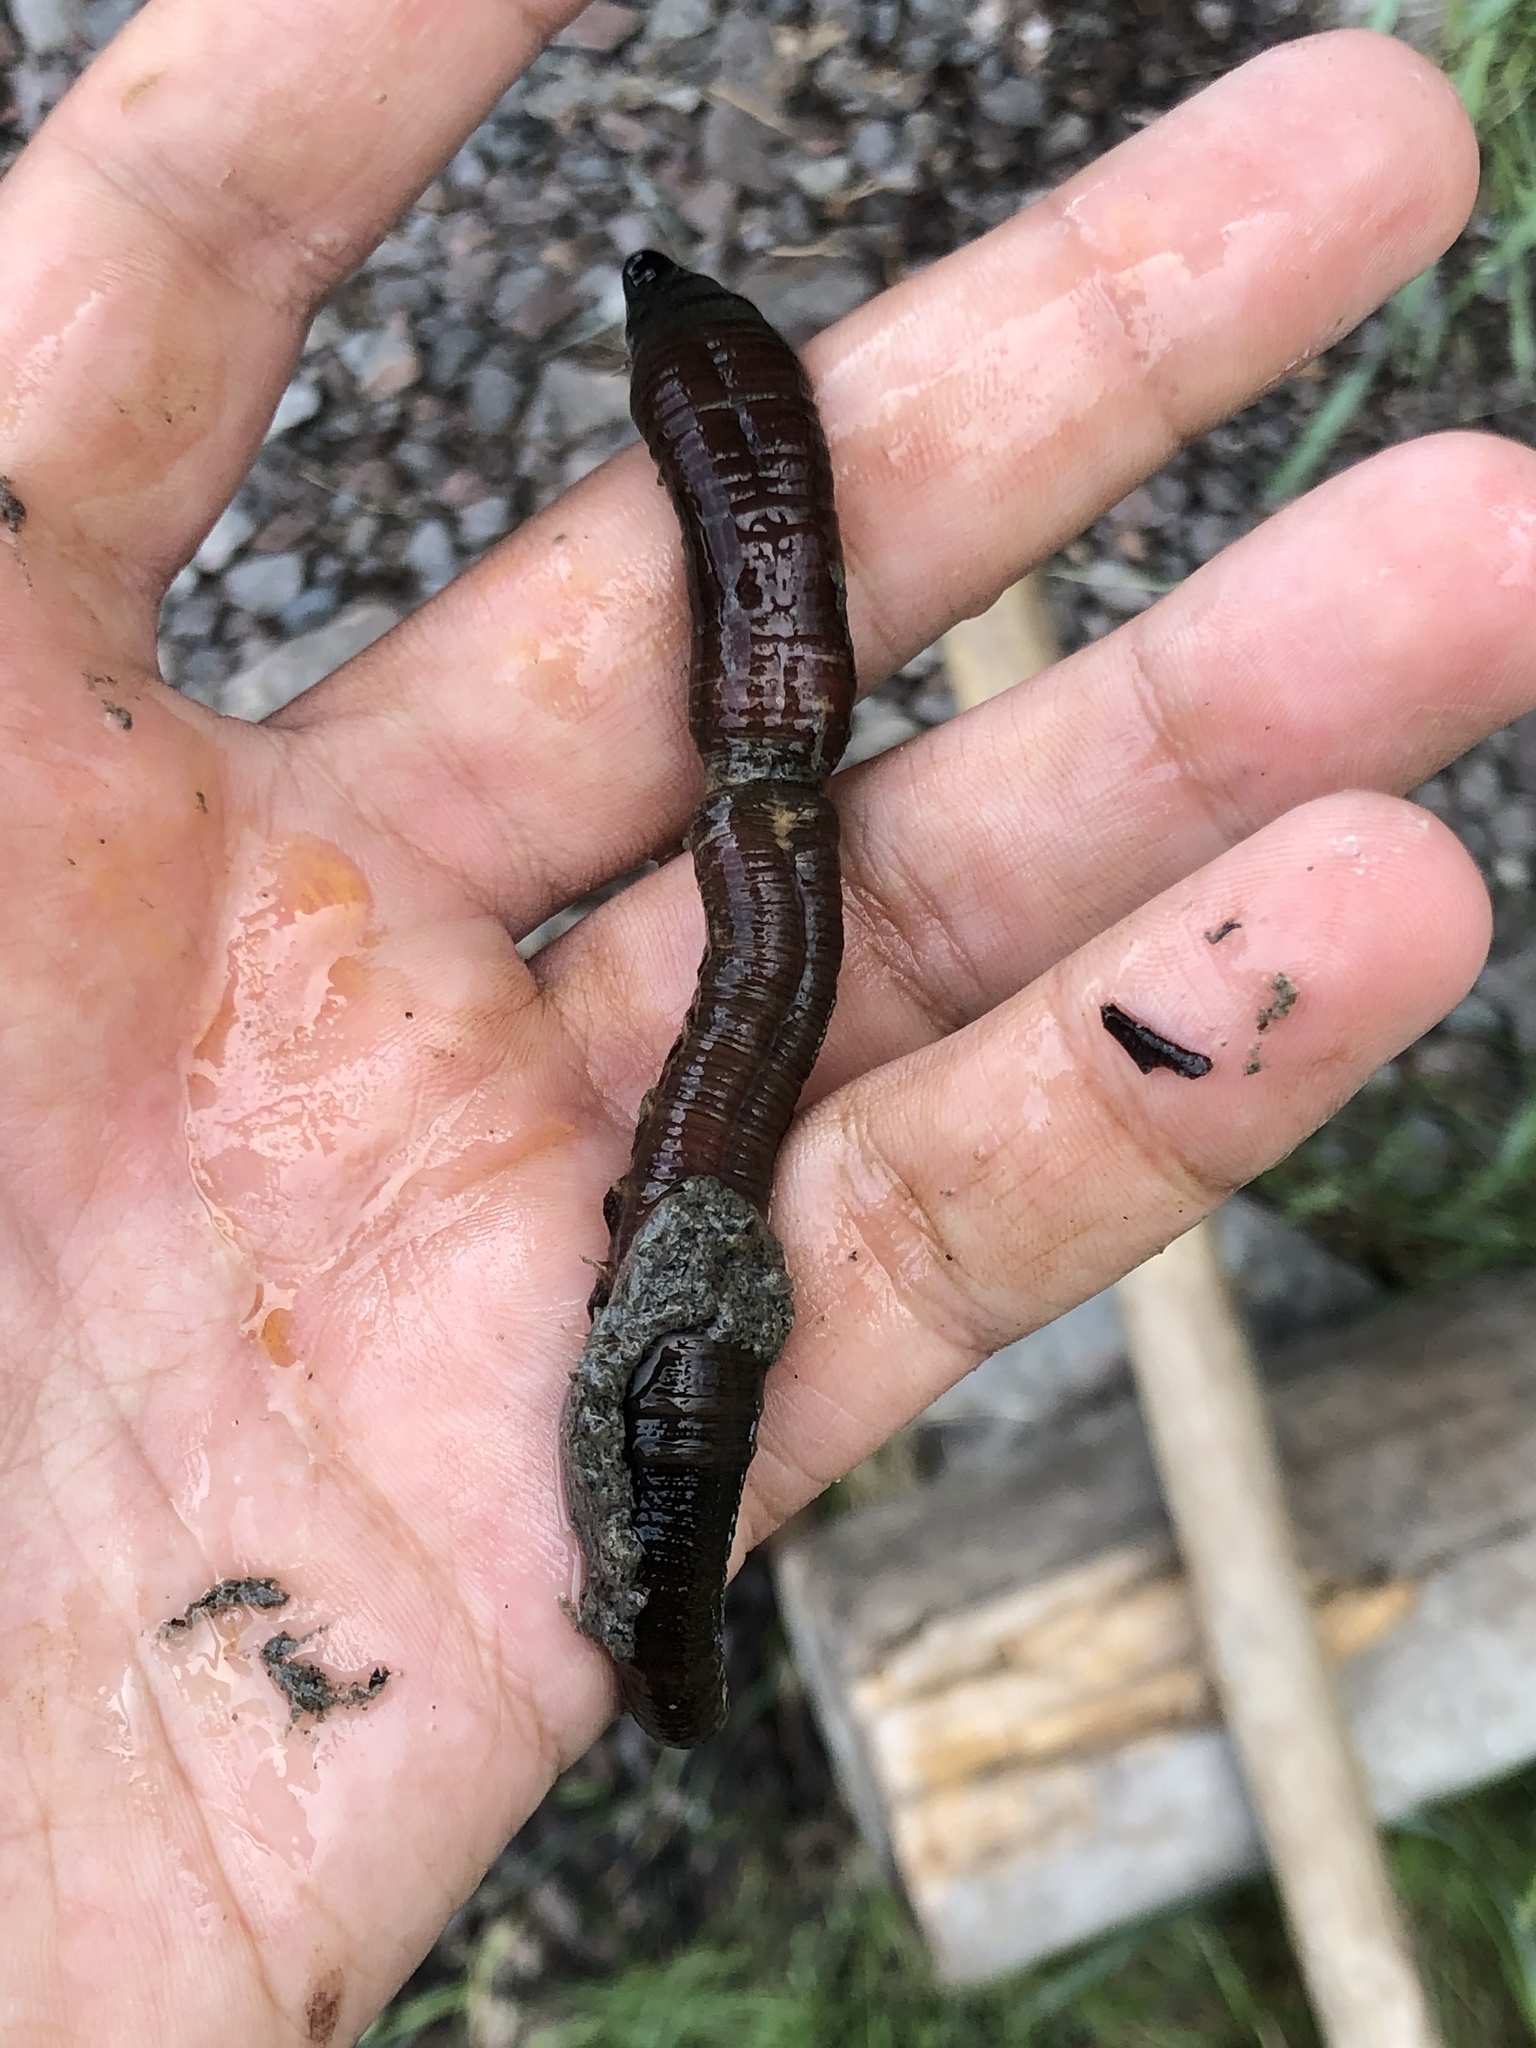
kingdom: Animalia
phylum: Annelida
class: Polychaeta
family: Arenicolidae
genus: Arenicola
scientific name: Arenicola marina
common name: Blow lugworm
